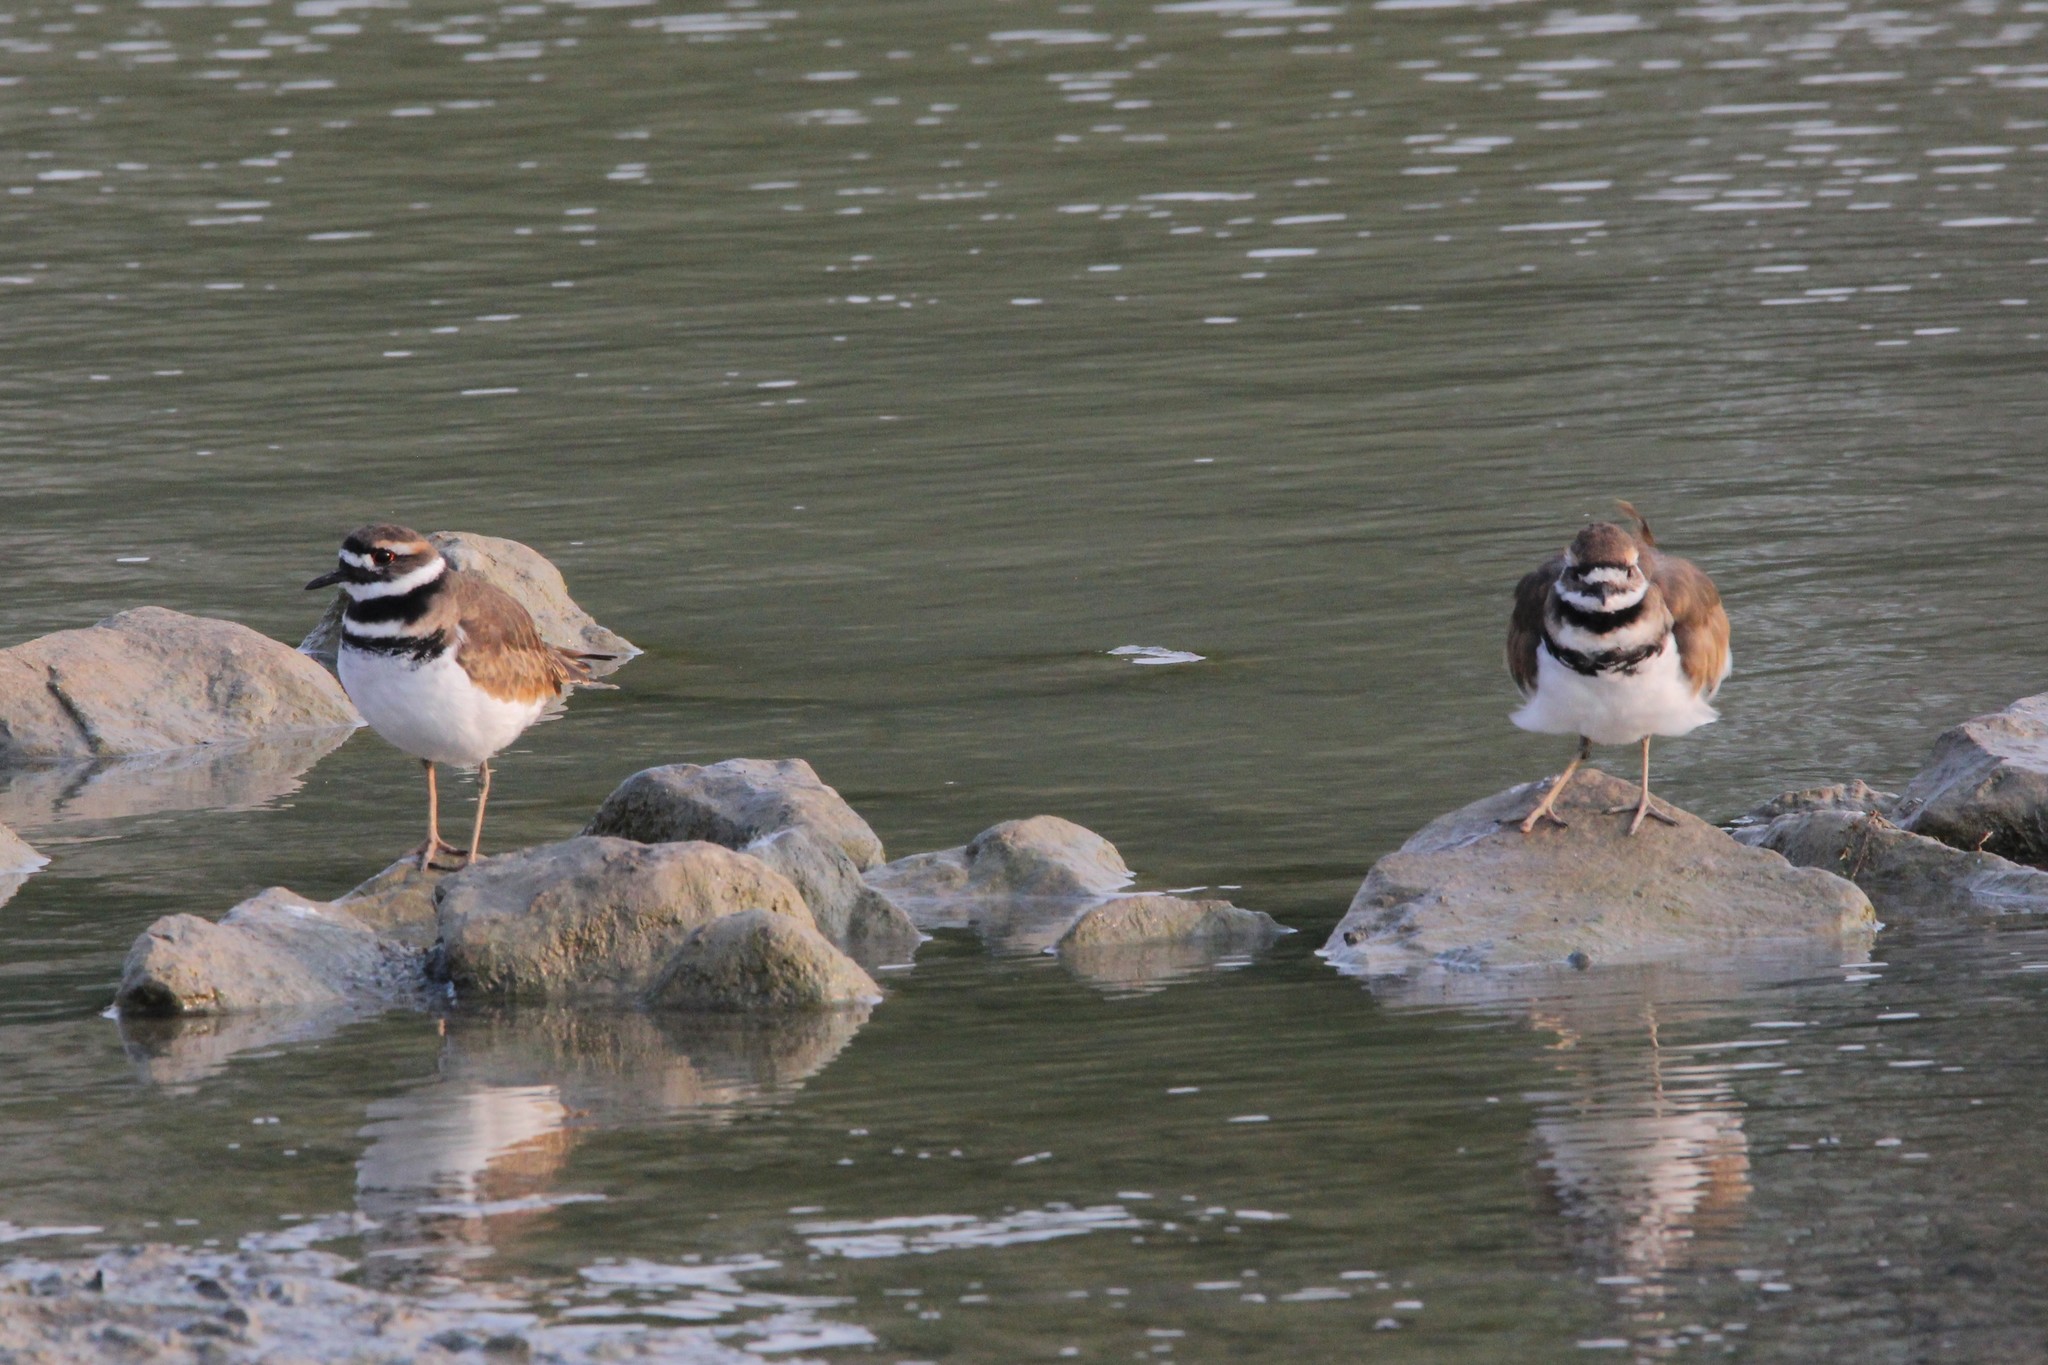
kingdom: Animalia
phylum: Chordata
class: Aves
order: Charadriiformes
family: Charadriidae
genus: Charadrius
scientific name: Charadrius vociferus
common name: Killdeer
